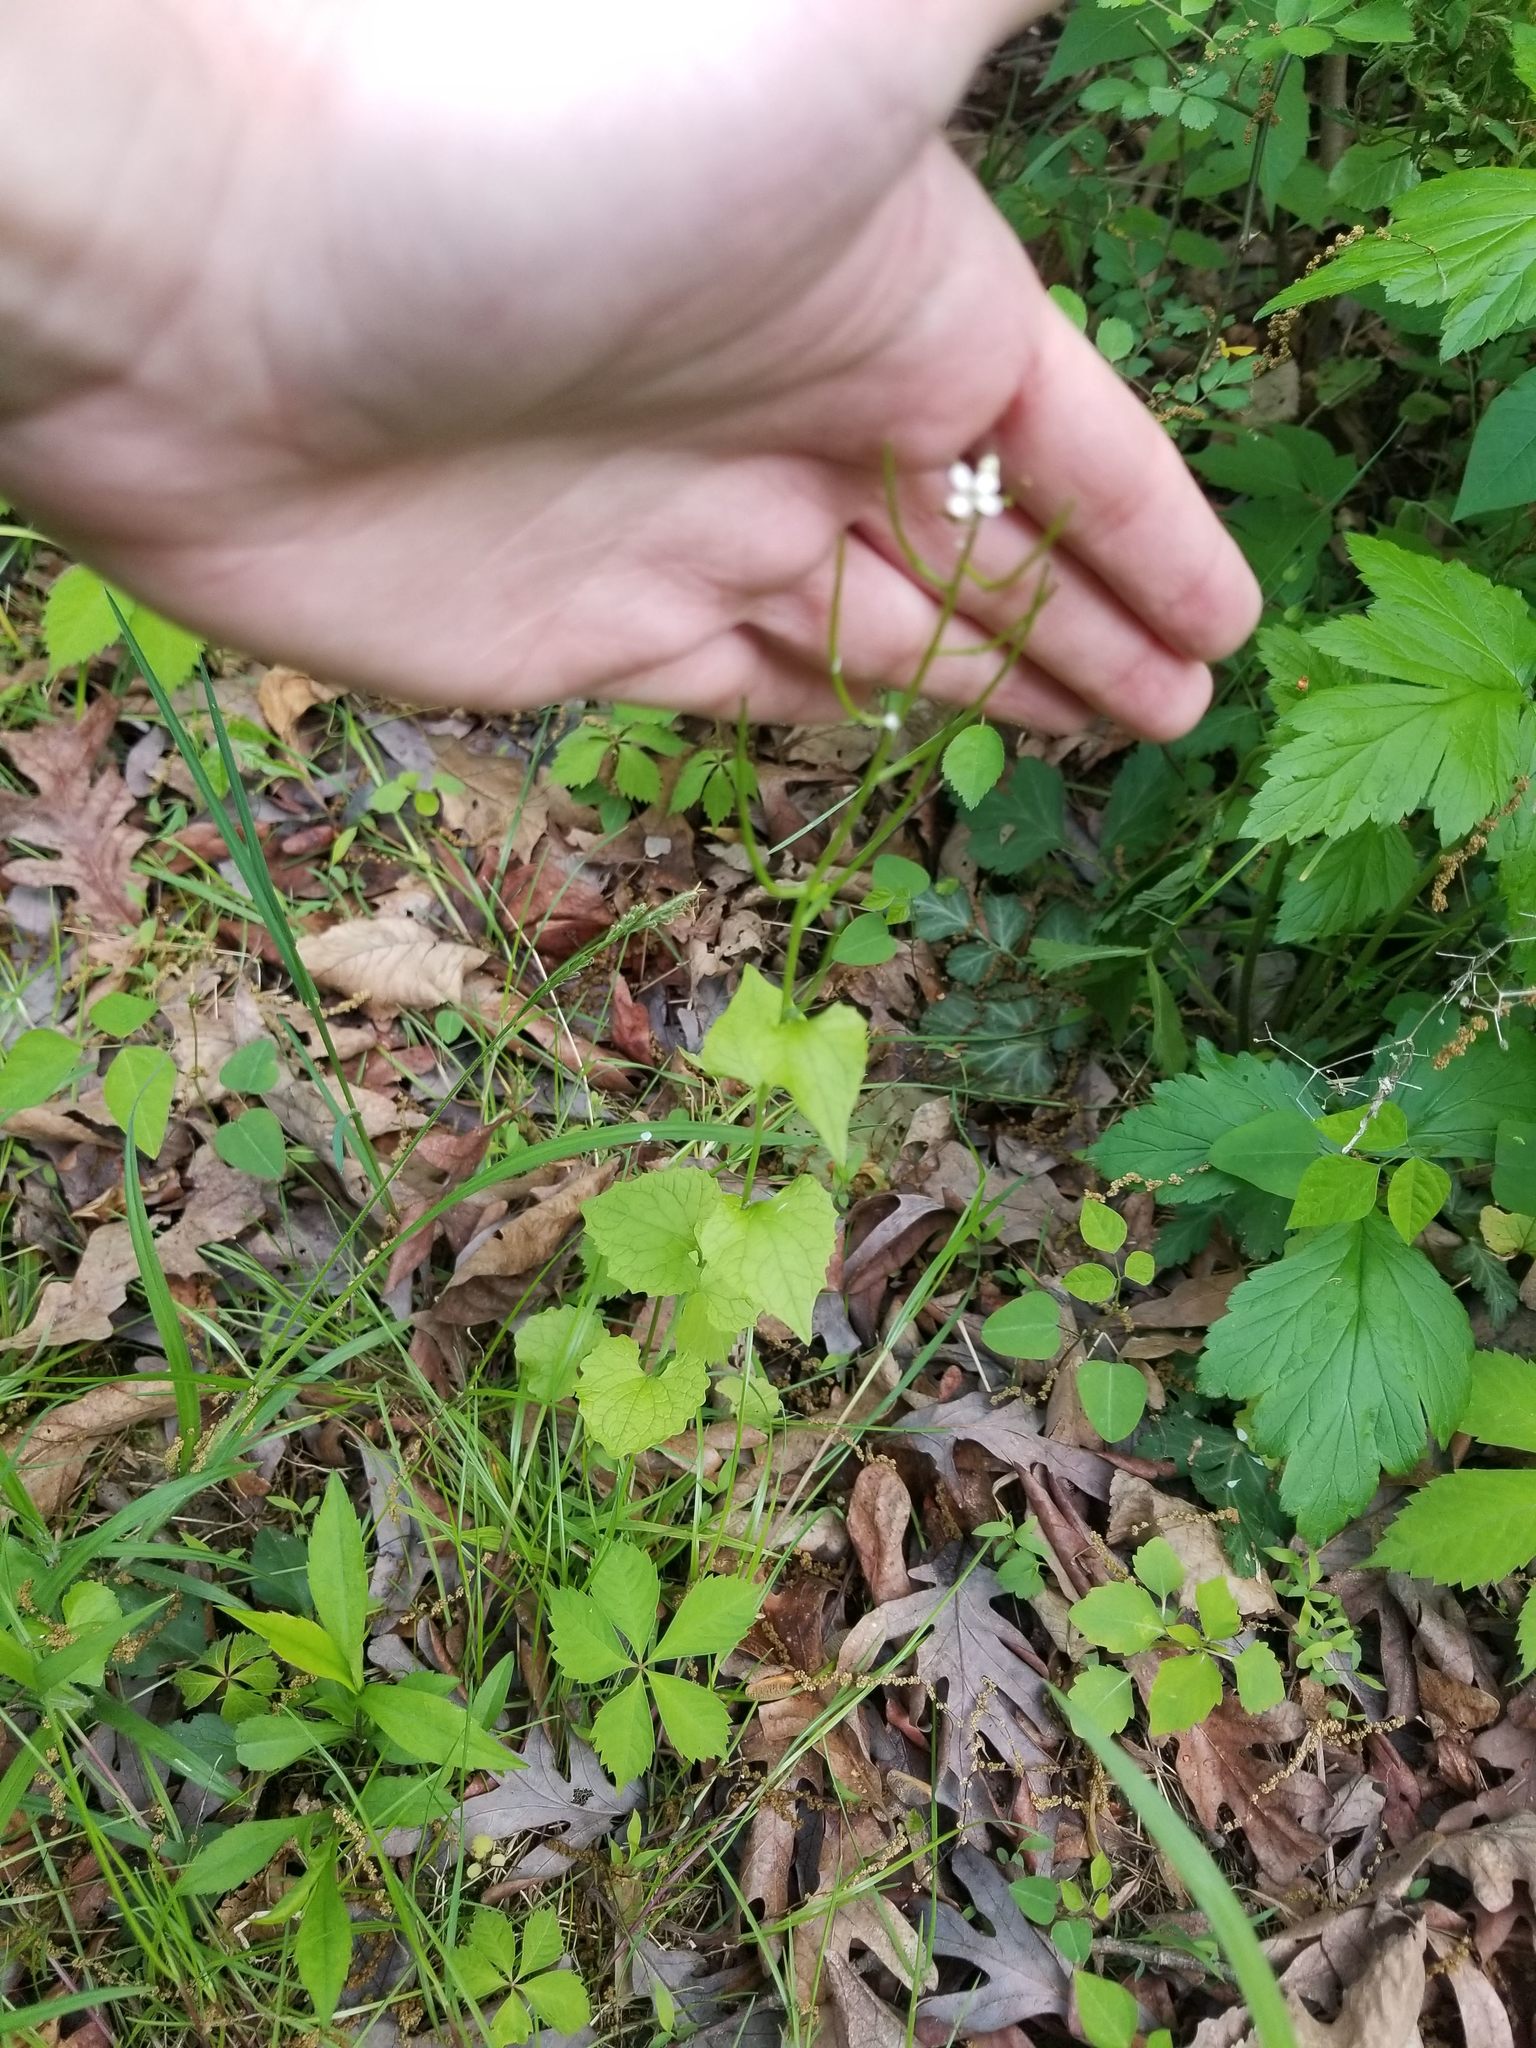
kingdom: Plantae
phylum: Tracheophyta
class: Magnoliopsida
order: Brassicales
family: Brassicaceae
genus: Alliaria
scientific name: Alliaria petiolata
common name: Garlic mustard
